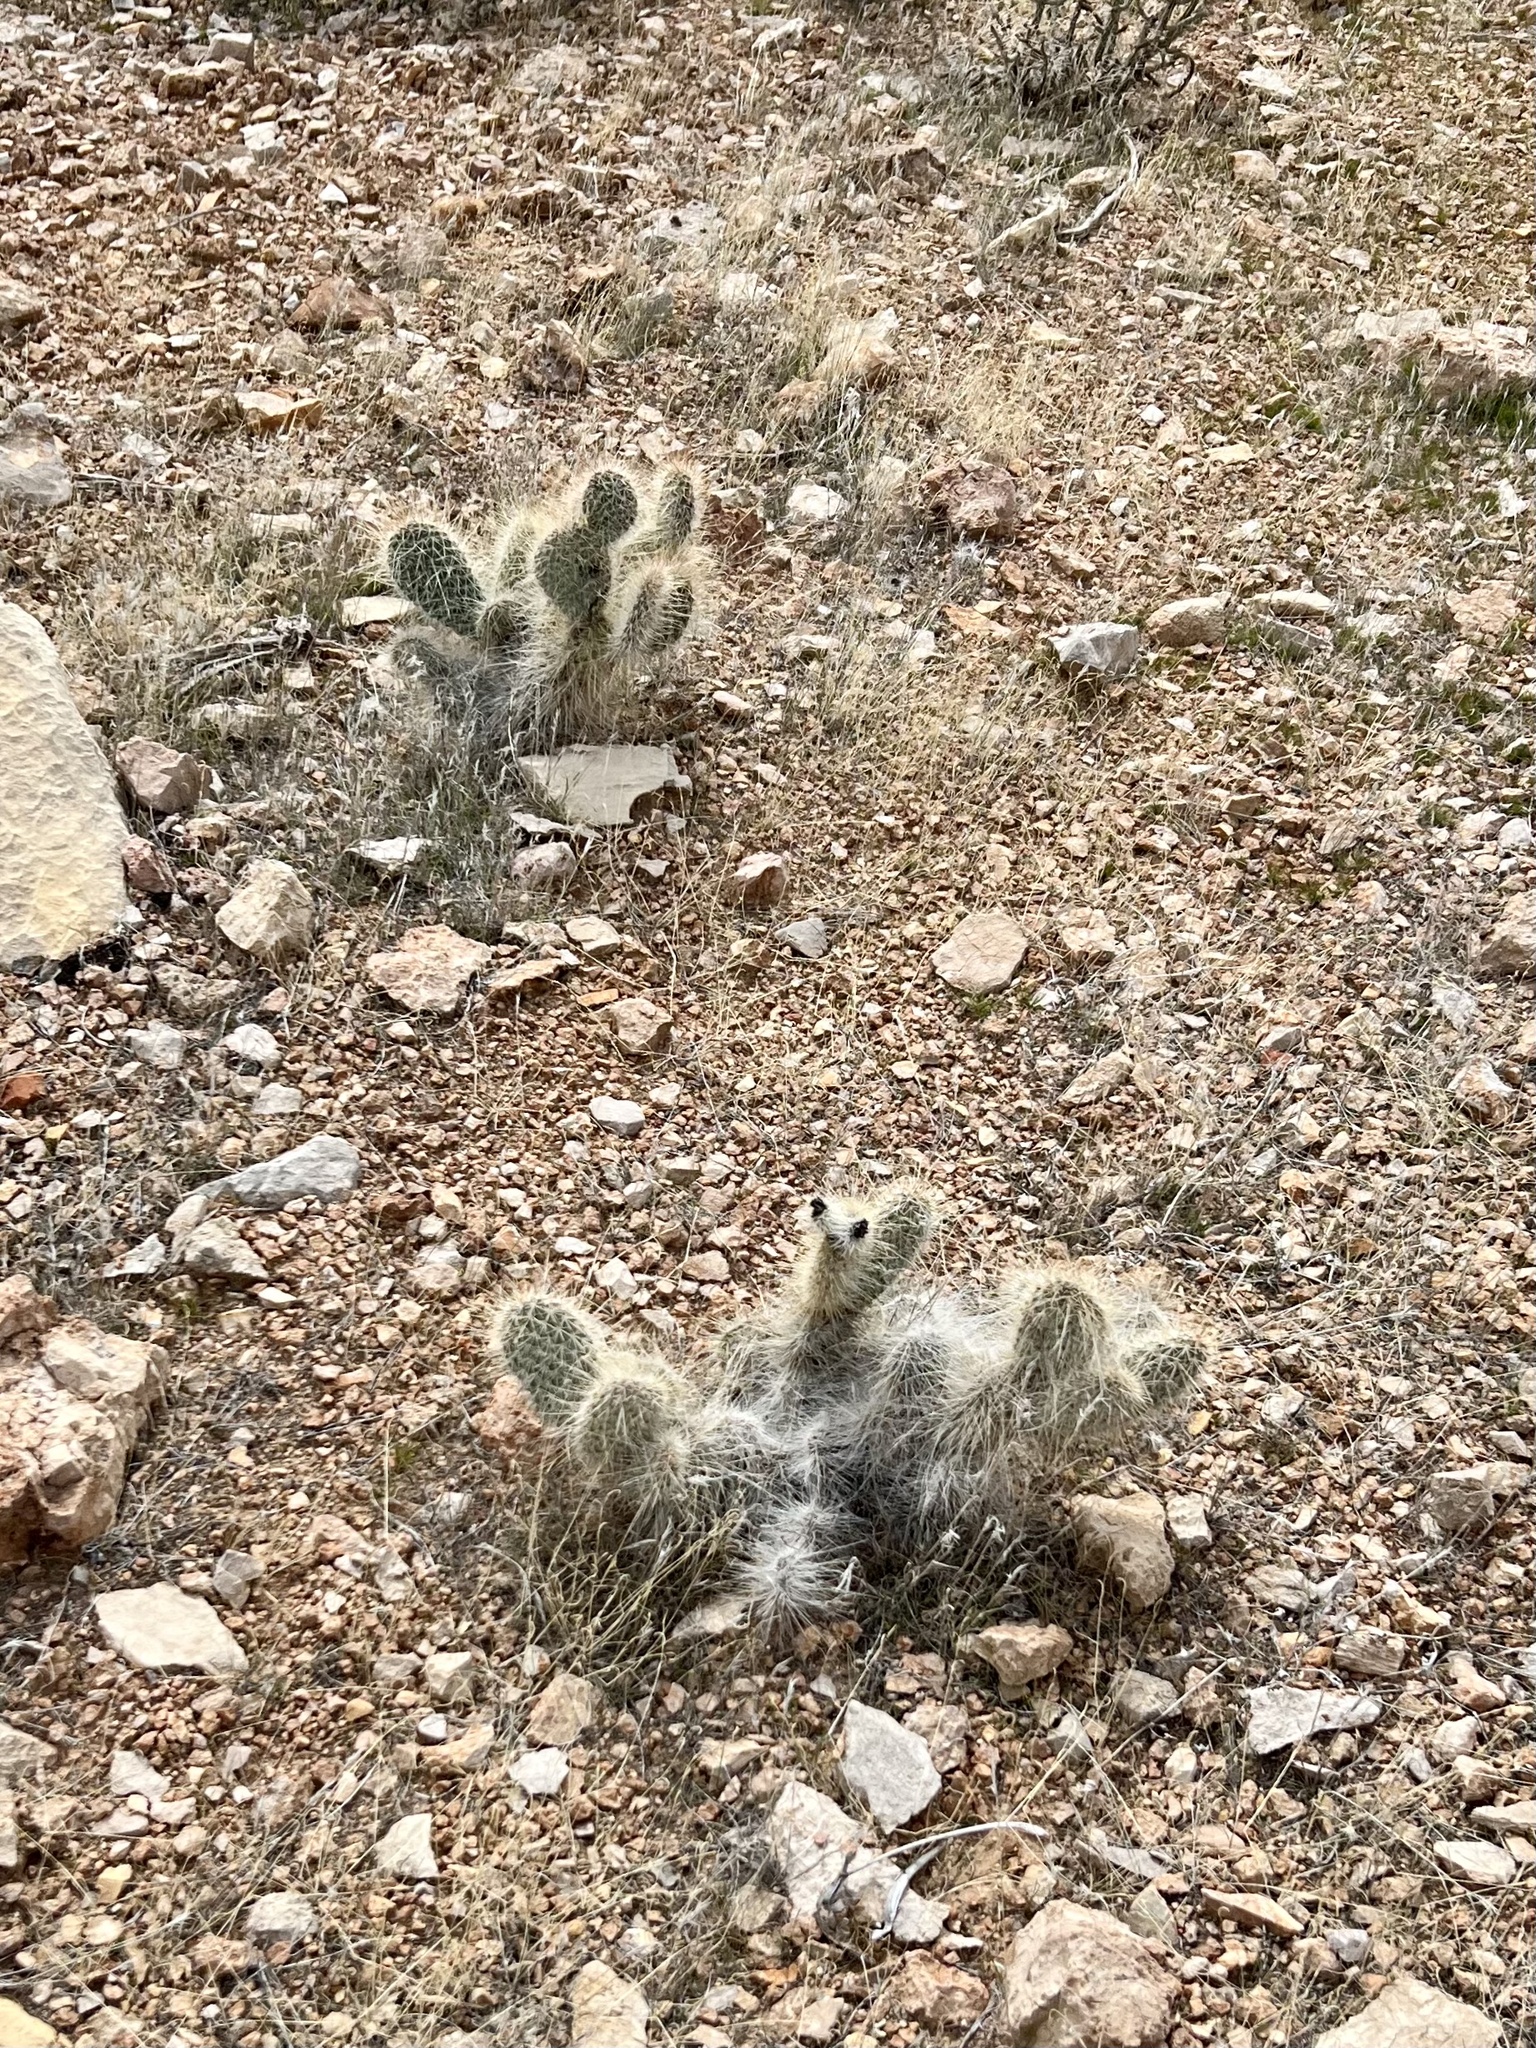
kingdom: Plantae
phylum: Tracheophyta
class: Magnoliopsida
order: Caryophyllales
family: Cactaceae
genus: Opuntia
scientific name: Opuntia polyacantha
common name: Plains prickly-pear
